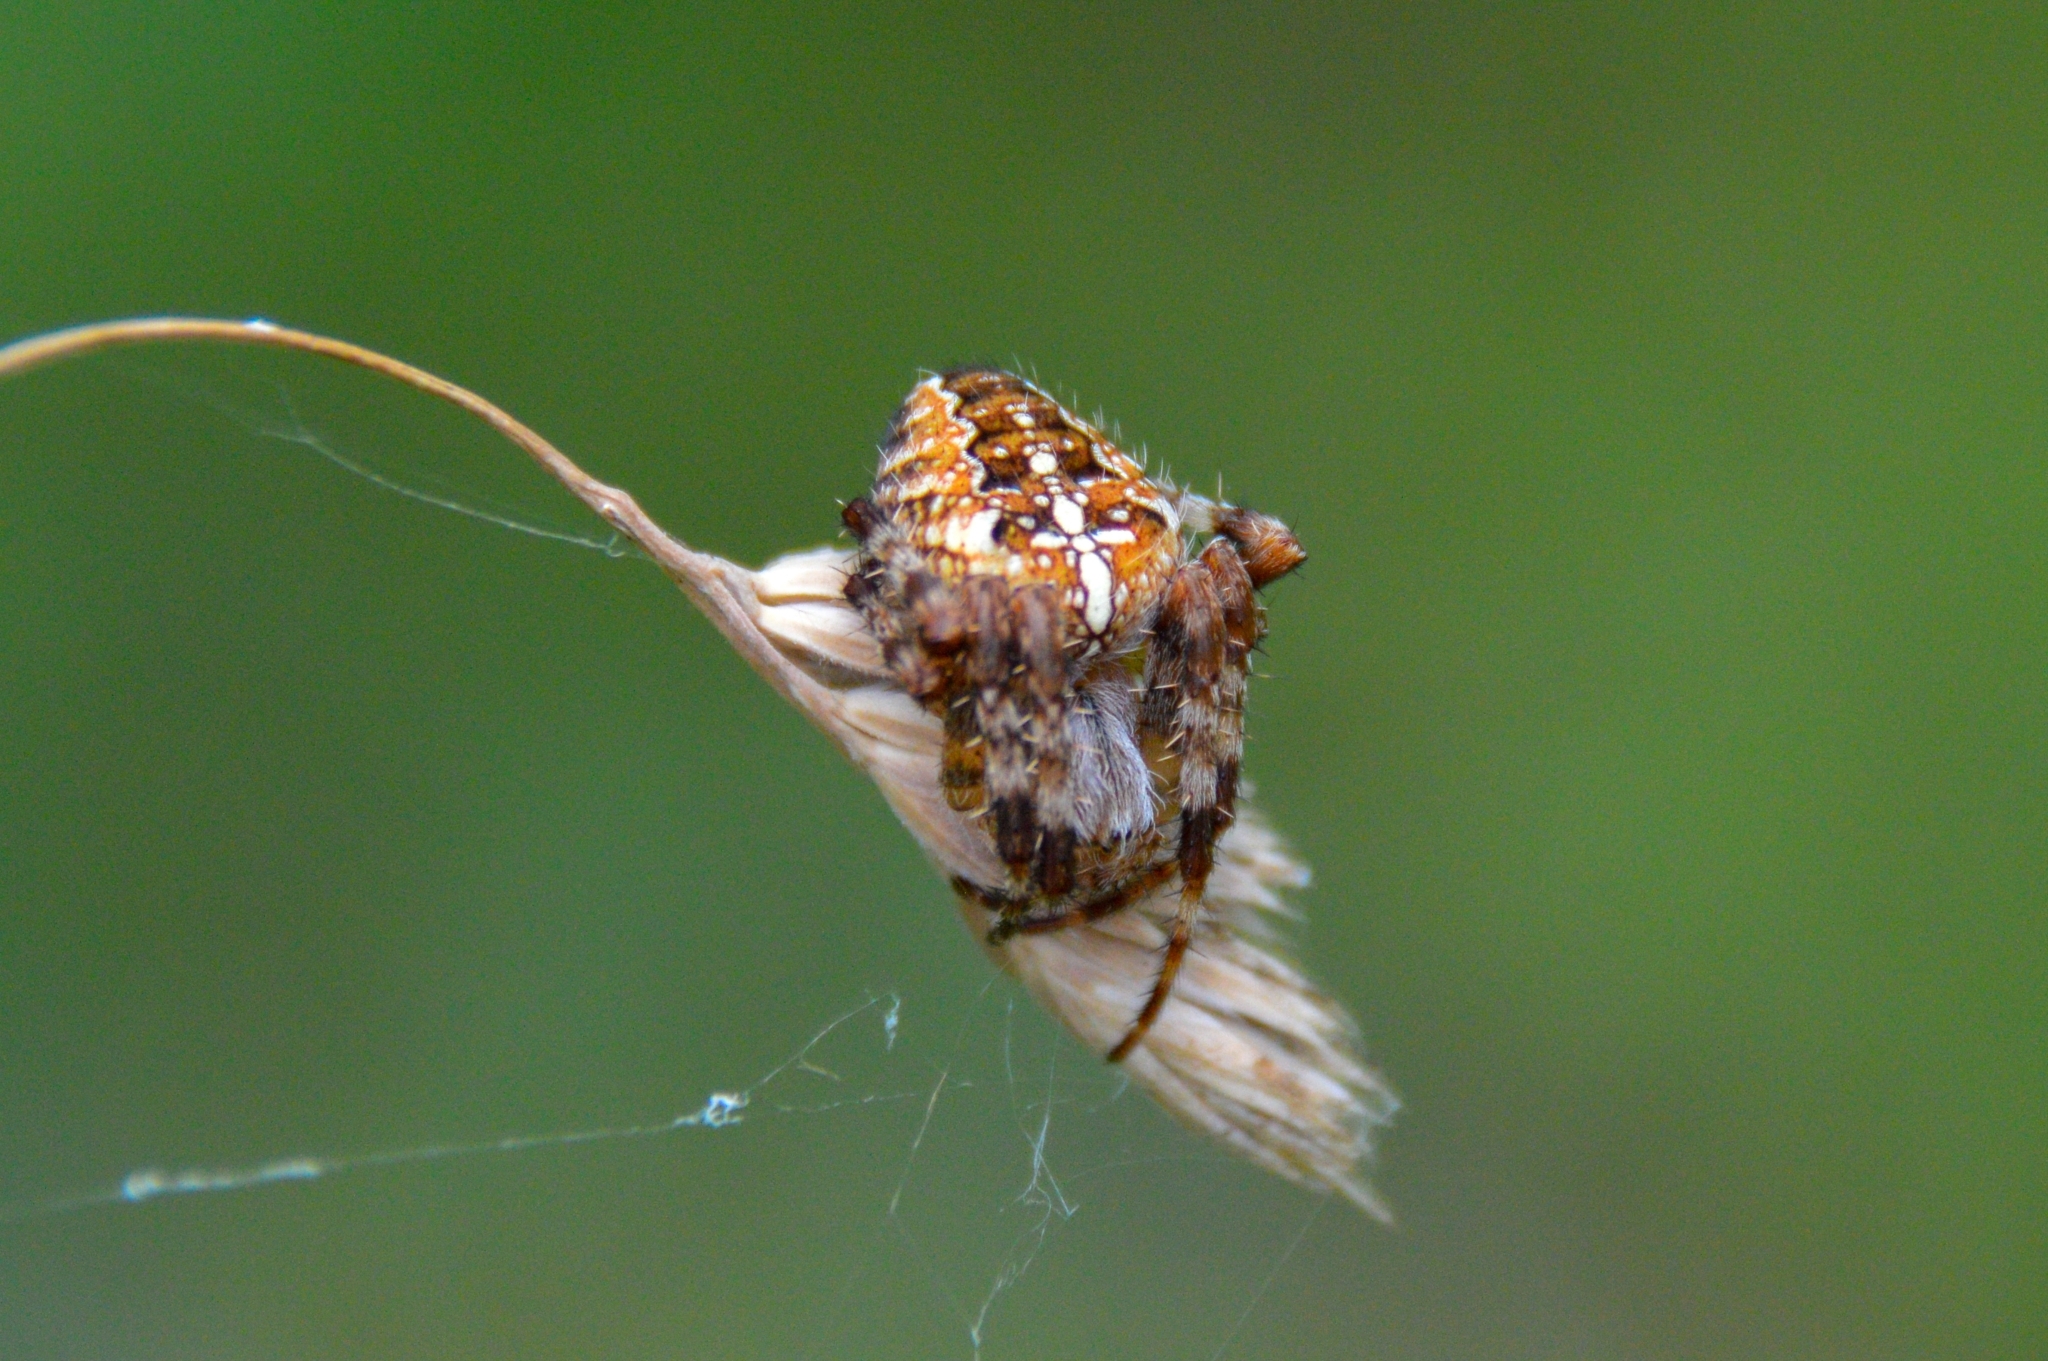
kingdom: Animalia
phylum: Arthropoda
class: Arachnida
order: Araneae
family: Araneidae
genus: Araneus
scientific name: Araneus diadematus
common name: Cross orbweaver
